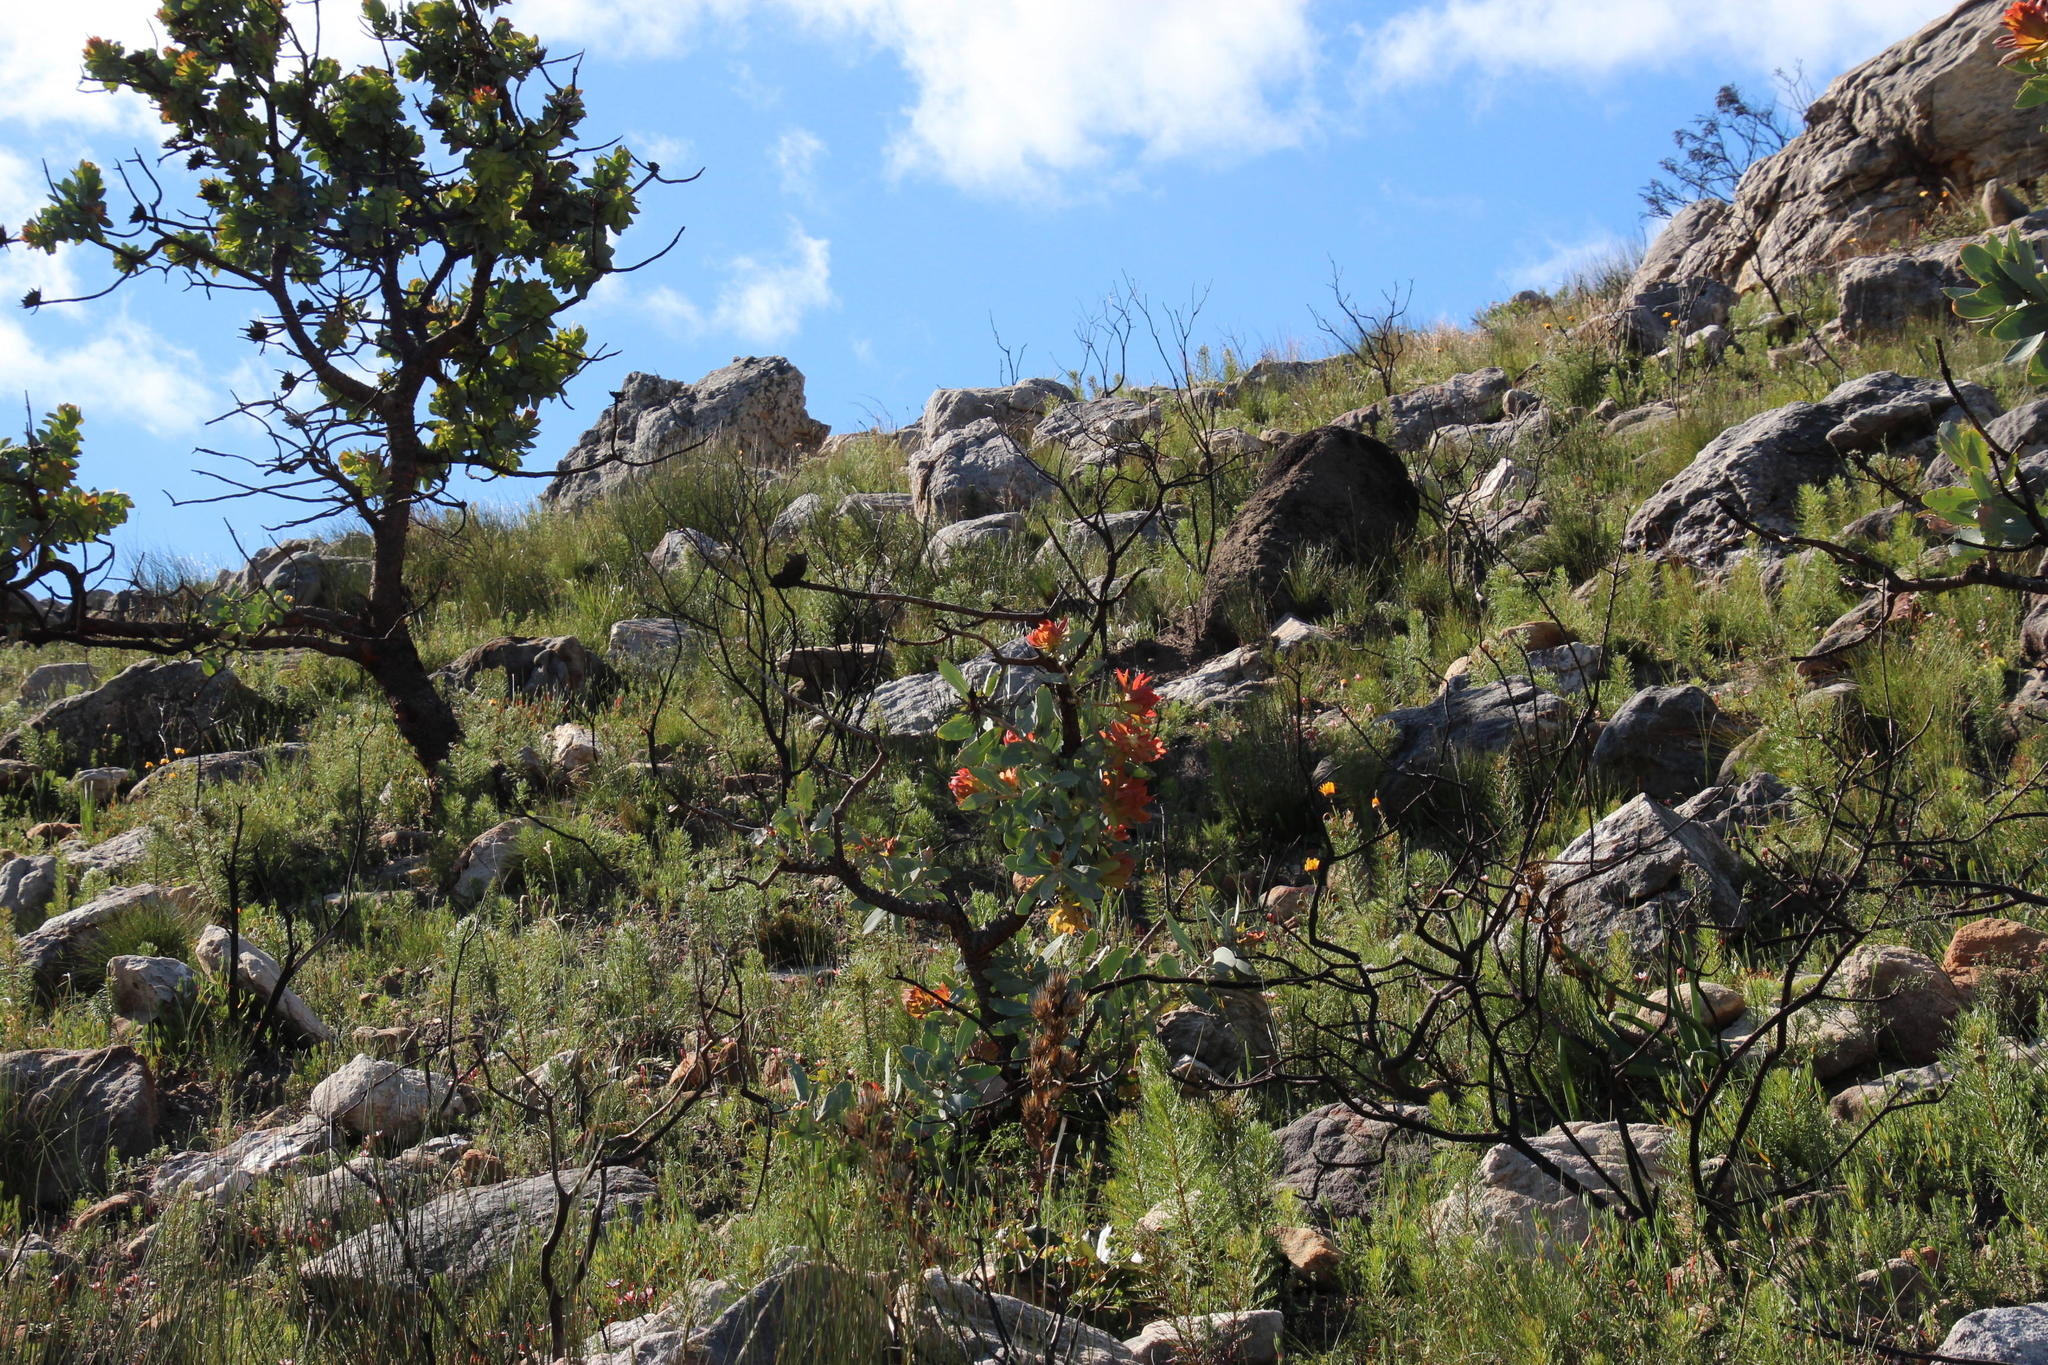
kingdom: Plantae
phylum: Tracheophyta
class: Magnoliopsida
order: Proteales
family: Proteaceae
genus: Protea
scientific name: Protea nitida
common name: Tree protea
